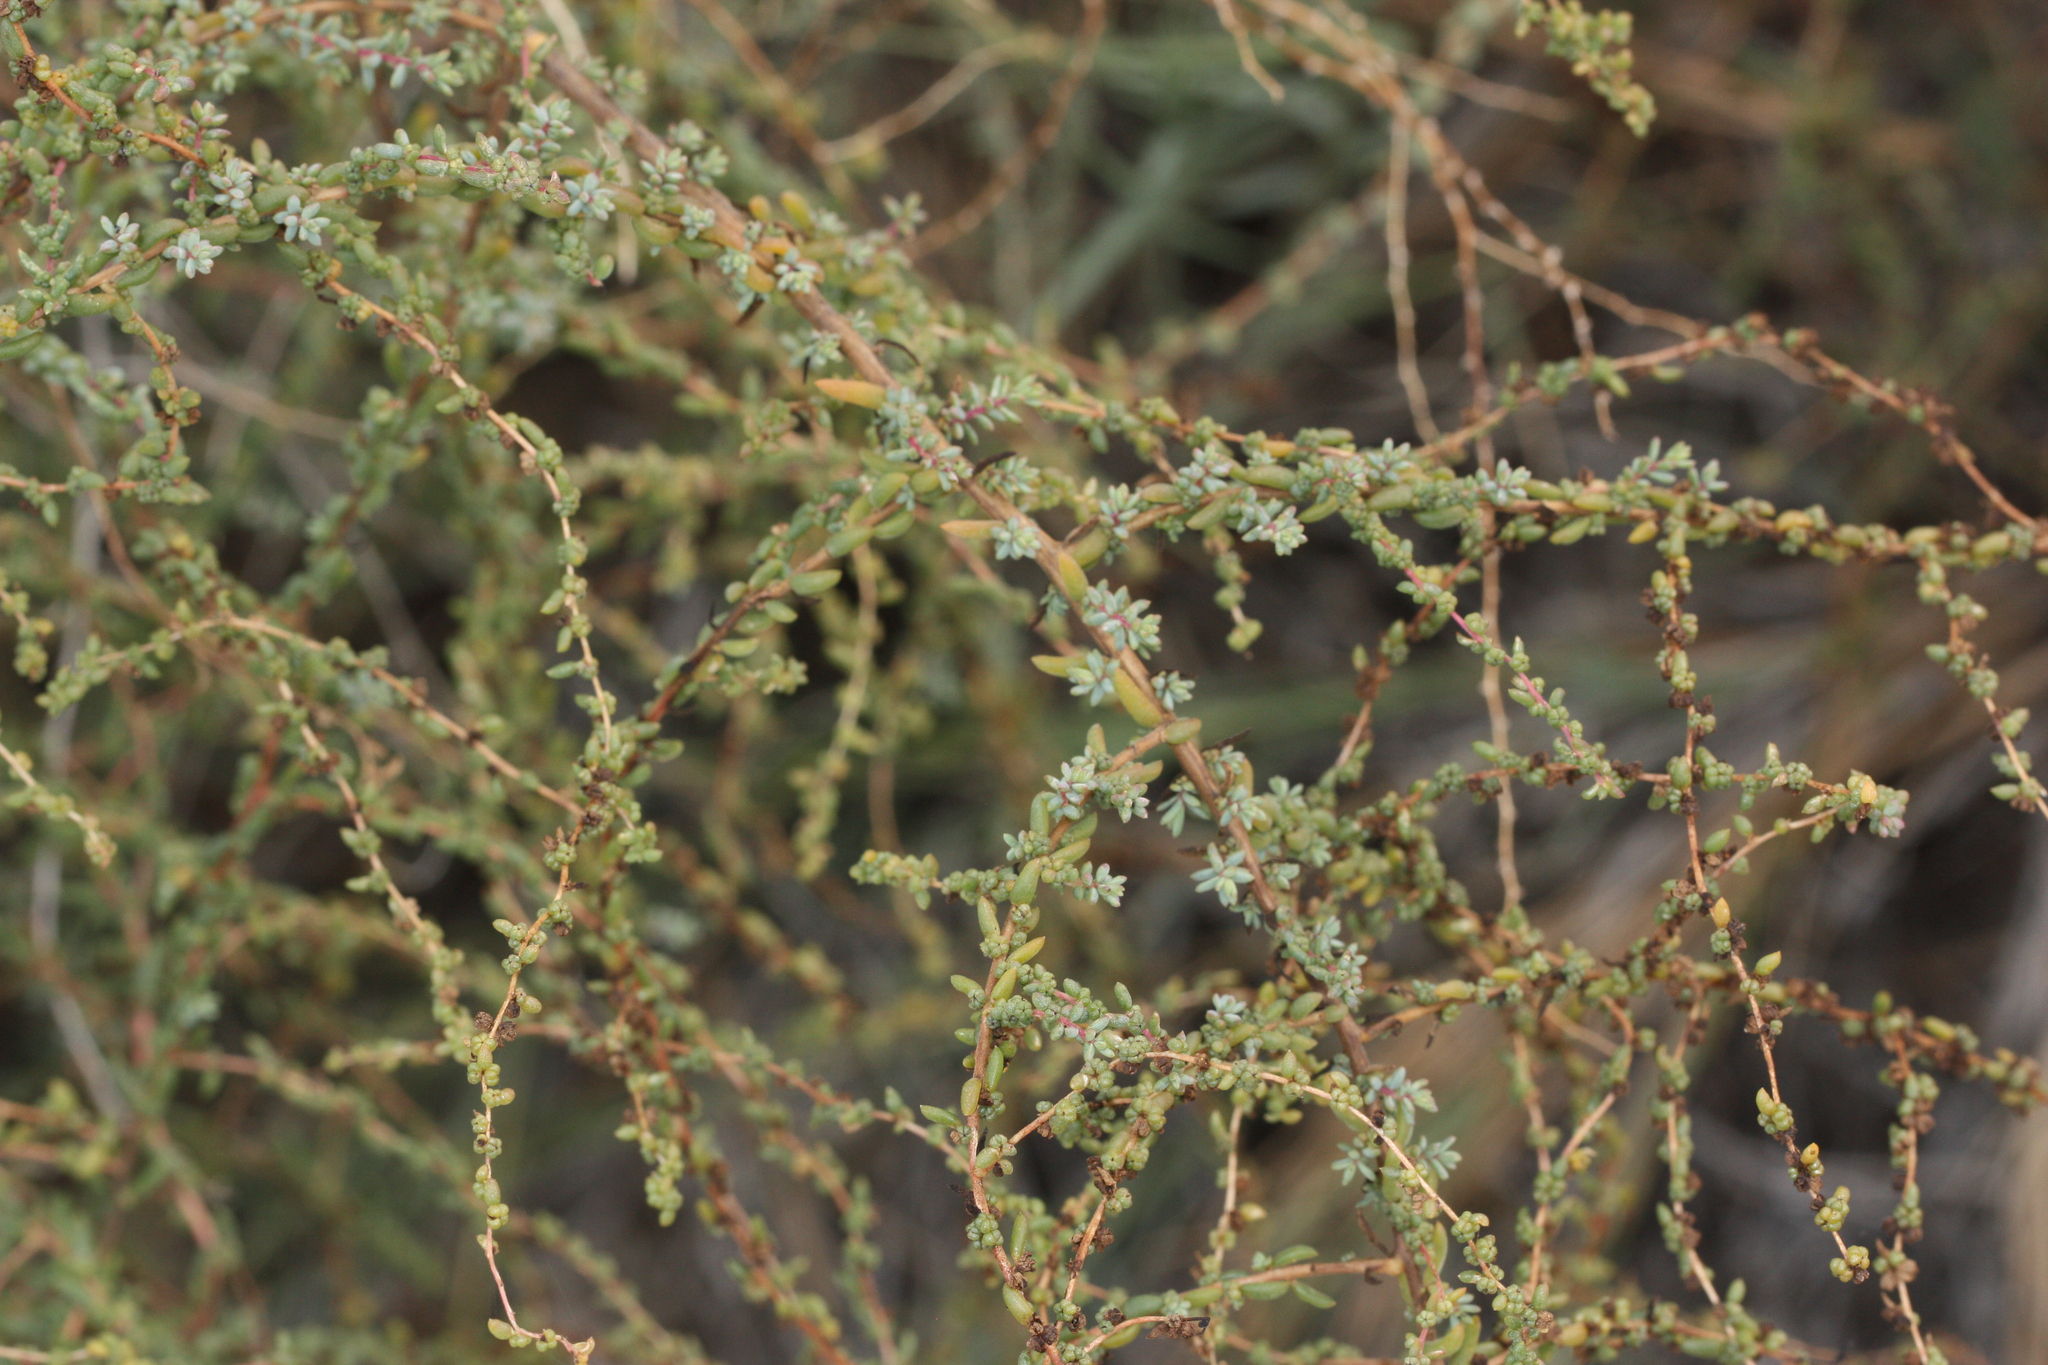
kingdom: Plantae
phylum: Tracheophyta
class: Magnoliopsida
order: Caryophyllales
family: Amaranthaceae
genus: Suaeda
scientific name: Suaeda nigra
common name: Bush seepweed
